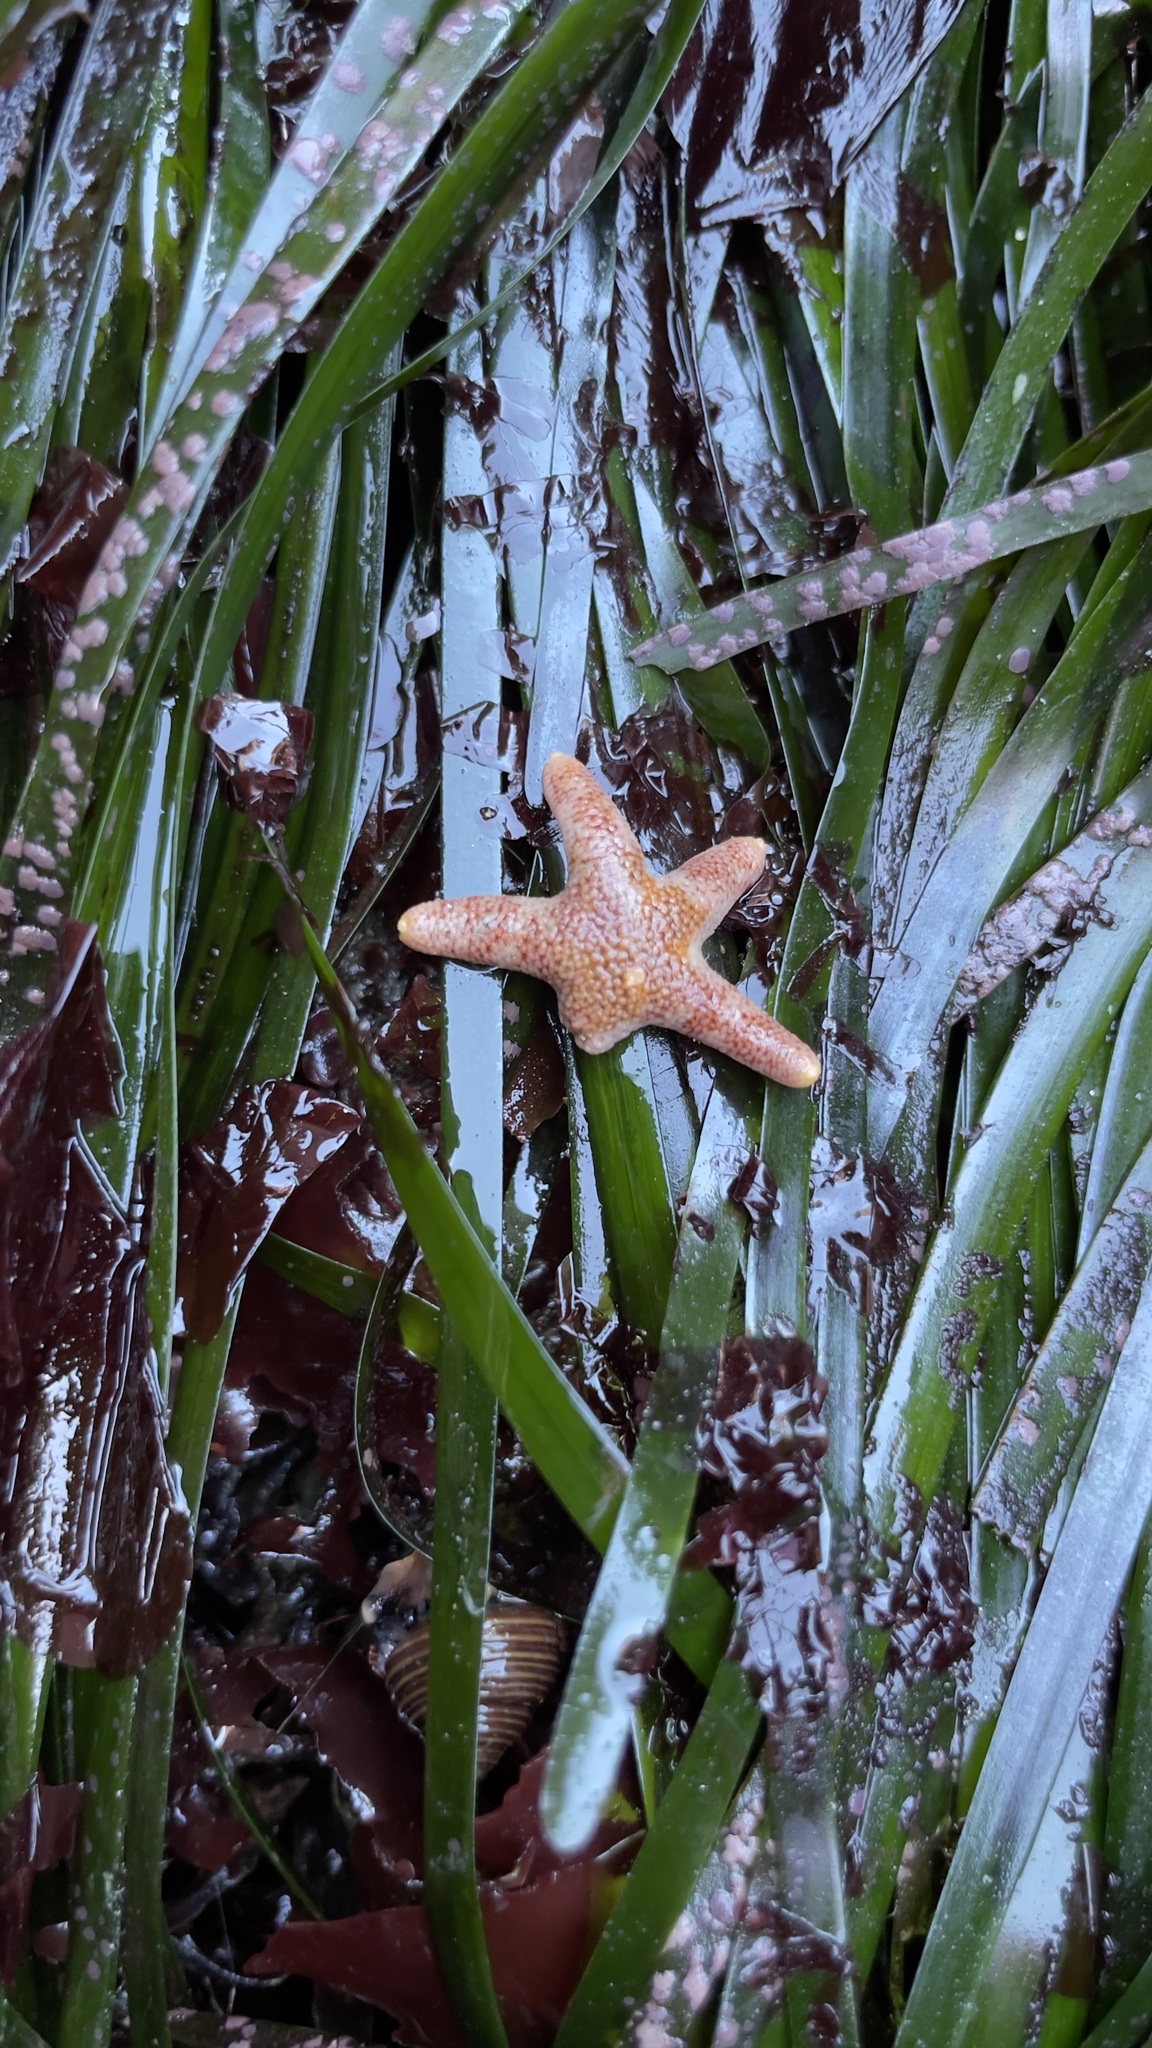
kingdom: Animalia
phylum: Echinodermata
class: Asteroidea
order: Spinulosida
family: Echinasteridae
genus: Henricia
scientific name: Henricia pumila
